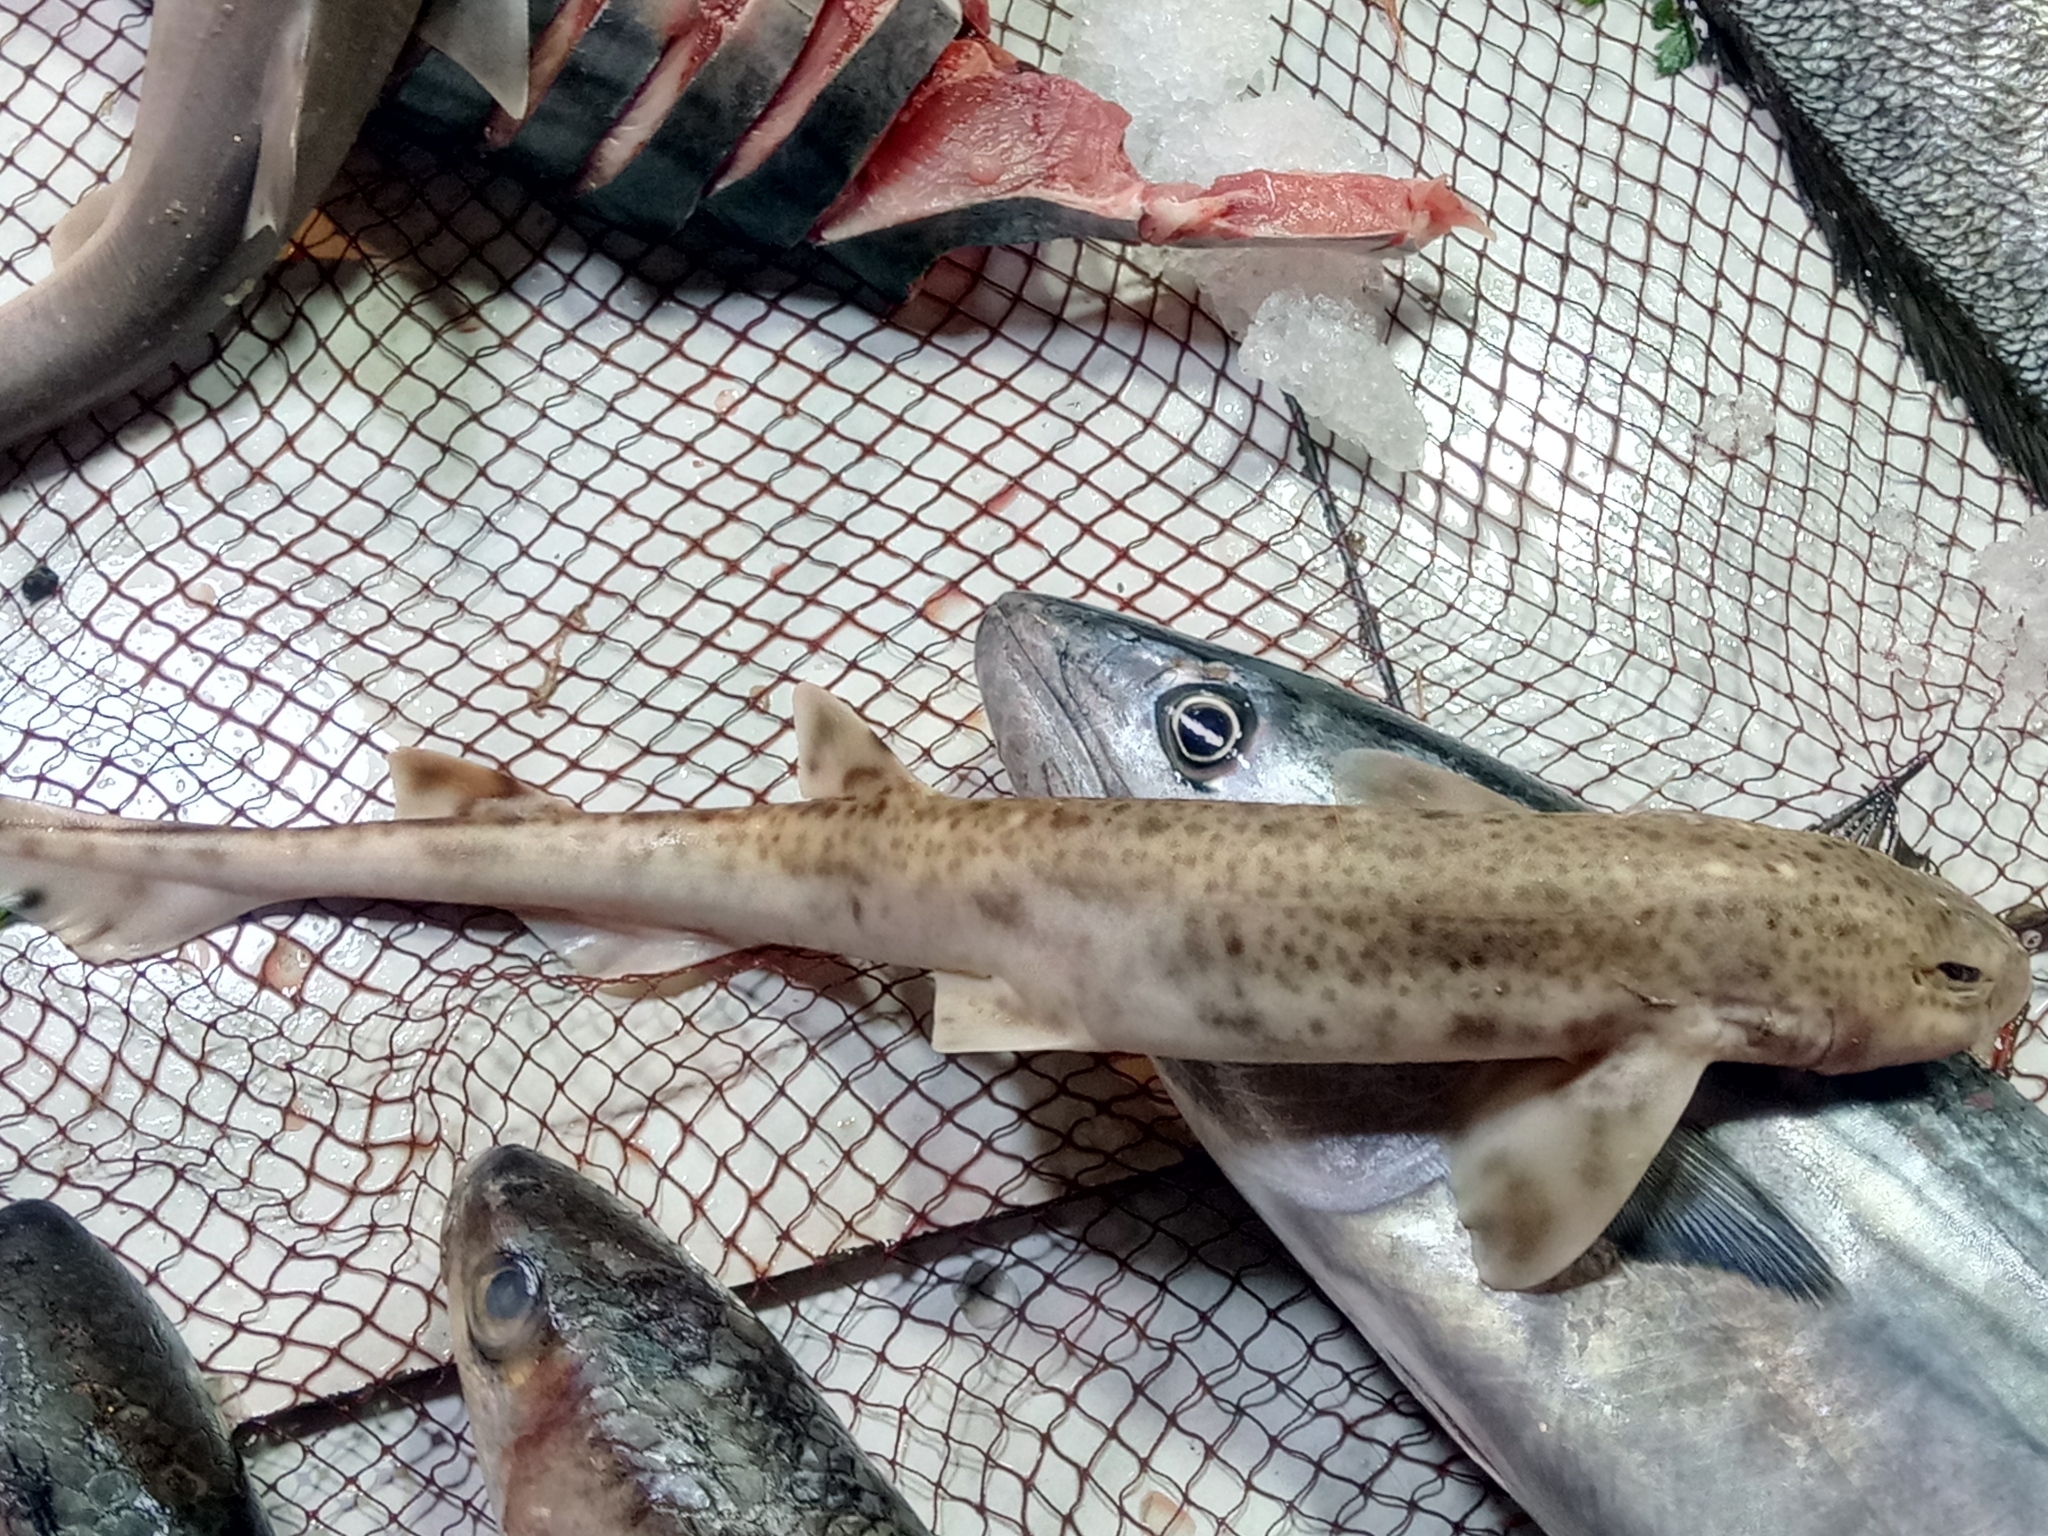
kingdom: Animalia
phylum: Chordata
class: Elasmobranchii
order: Carcharhiniformes
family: Scyliorhinidae
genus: Scyliorhinus
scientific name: Scyliorhinus canicula
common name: Lesser spotted dogfish
